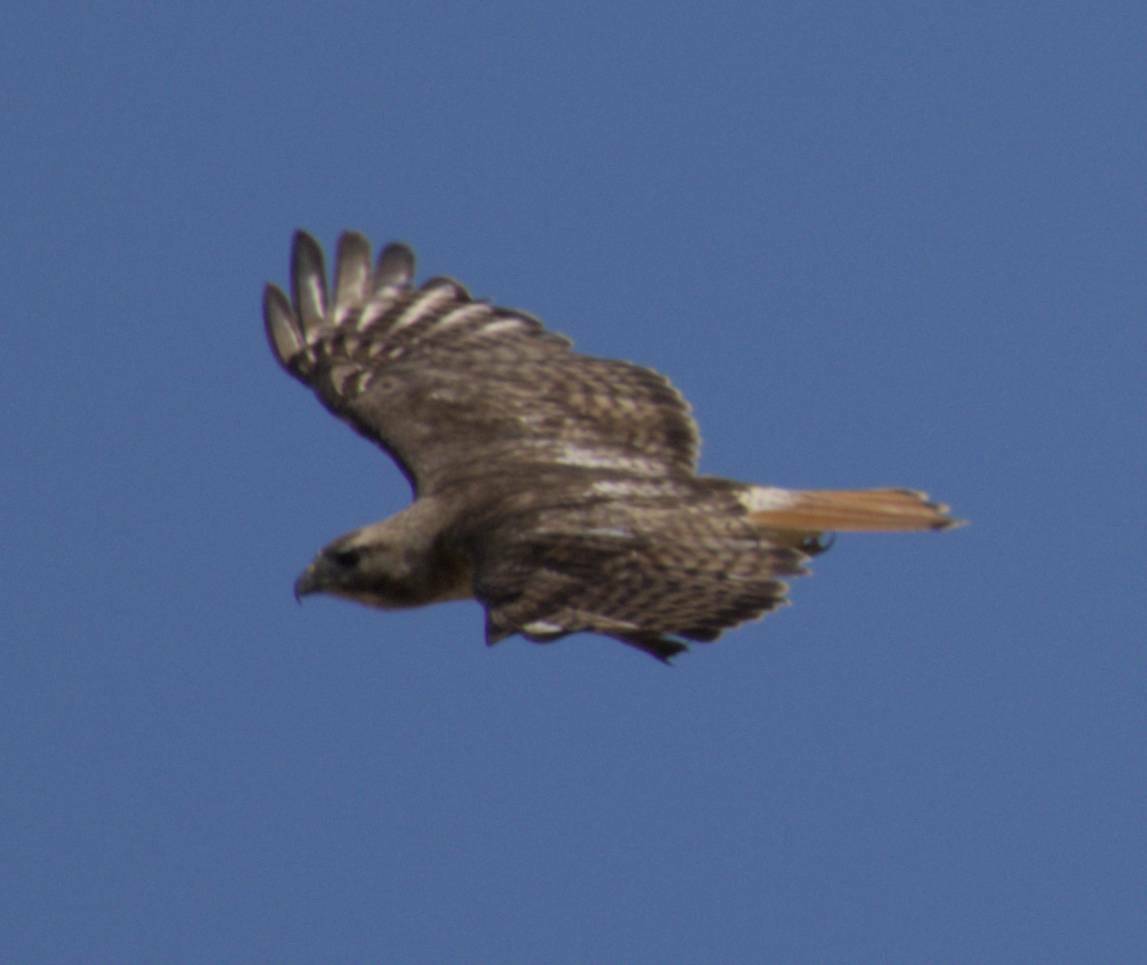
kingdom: Animalia
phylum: Chordata
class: Aves
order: Accipitriformes
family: Accipitridae
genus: Buteo
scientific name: Buteo jamaicensis
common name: Red-tailed hawk
